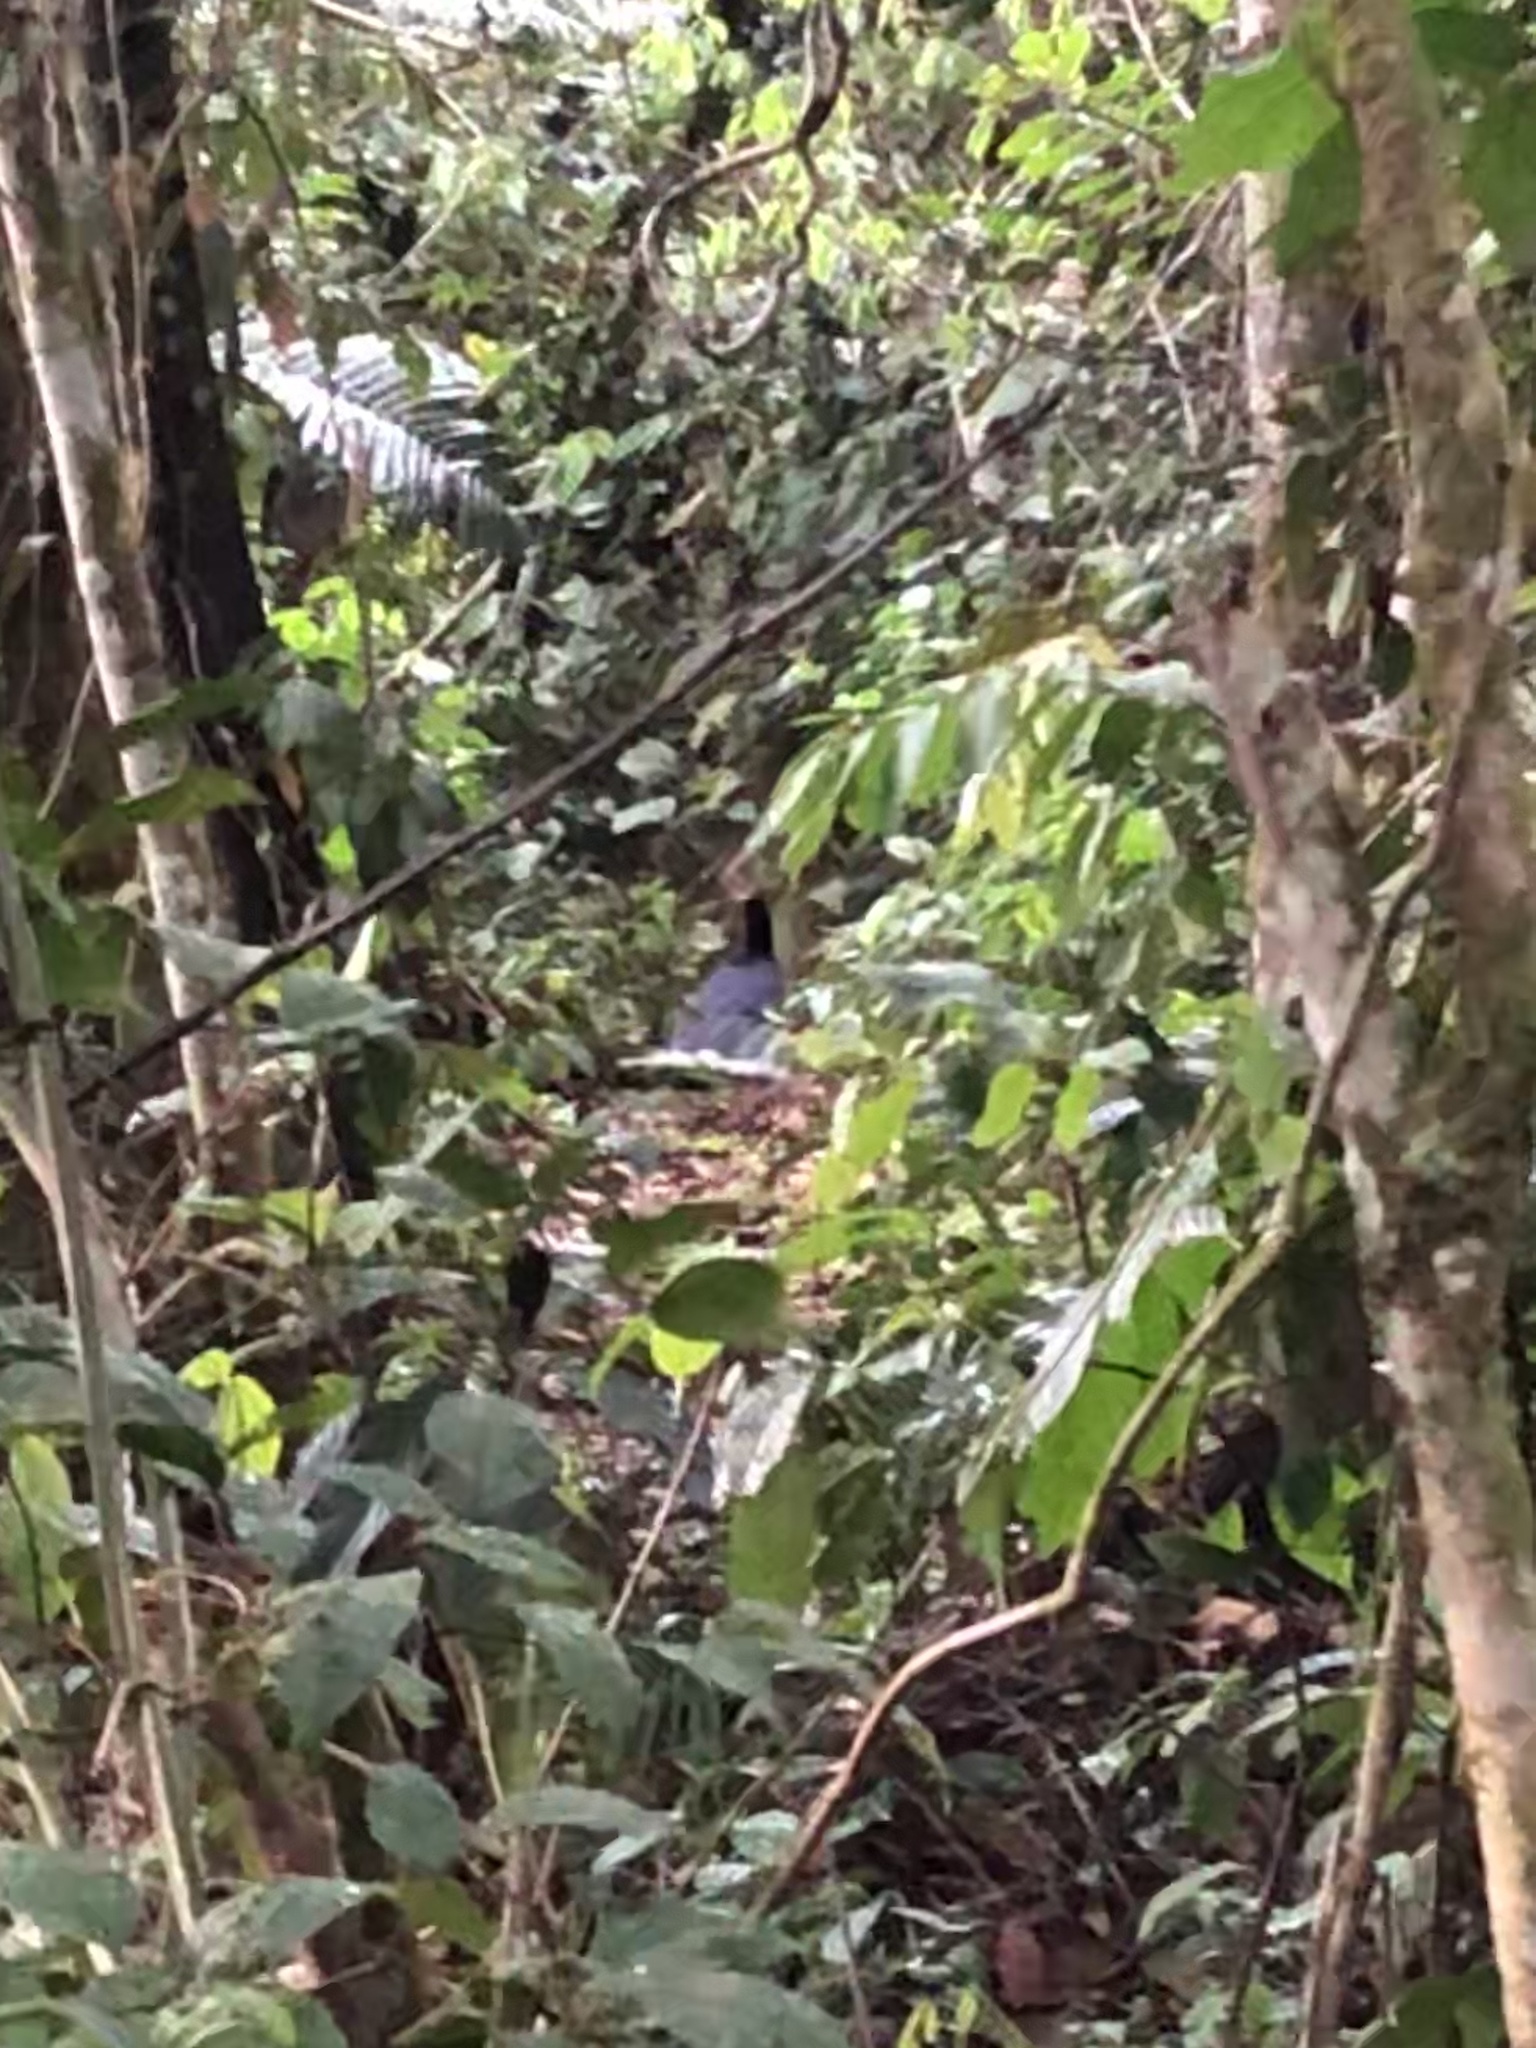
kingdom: Animalia
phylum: Chordata
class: Aves
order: Galliformes
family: Cracidae
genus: Mitu
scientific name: Mitu tuberosum
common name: Razor-billed curassow
